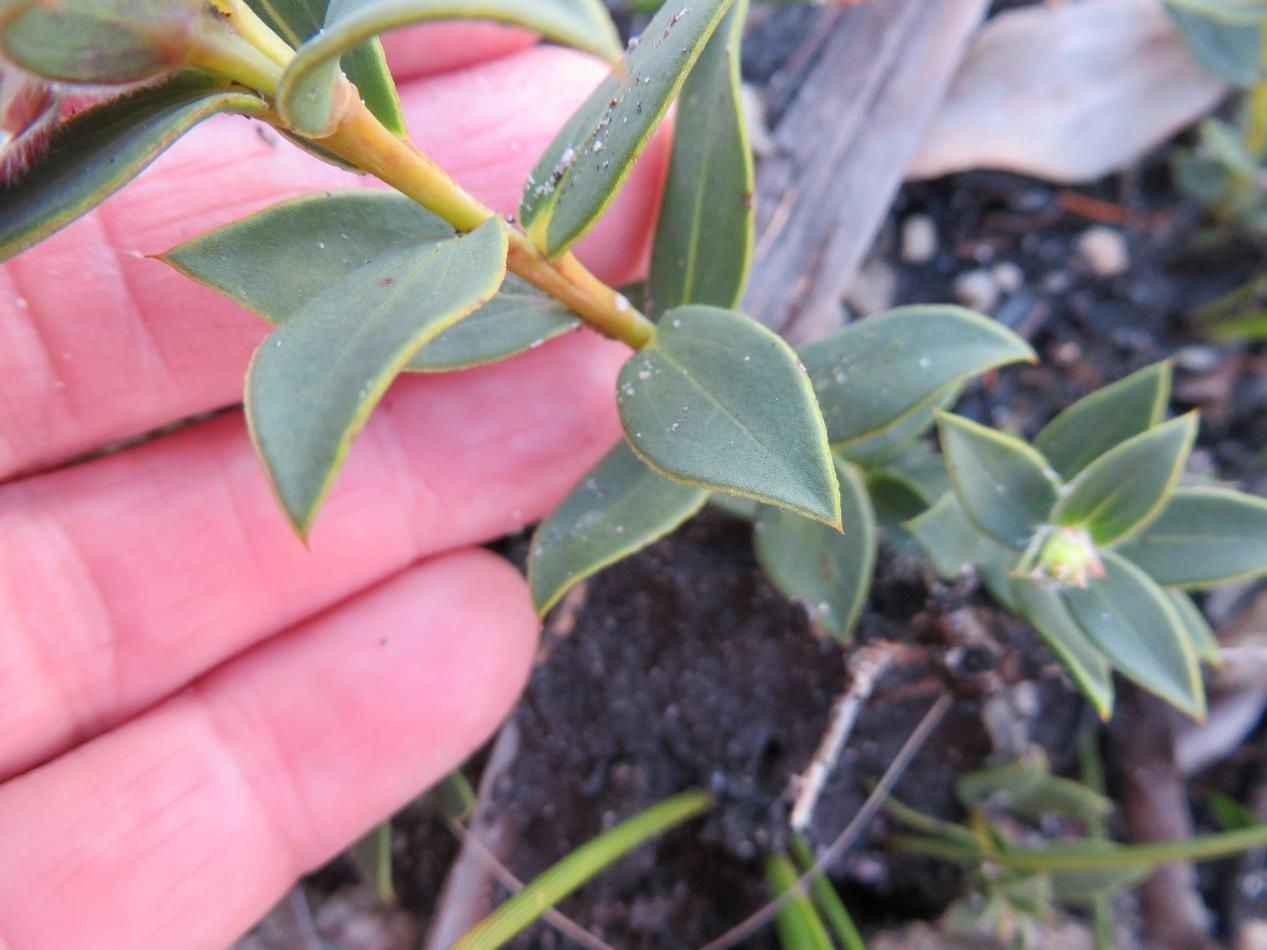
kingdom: Plantae
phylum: Tracheophyta
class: Magnoliopsida
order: Fabales
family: Fabaceae
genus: Liparia
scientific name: Liparia splendens
